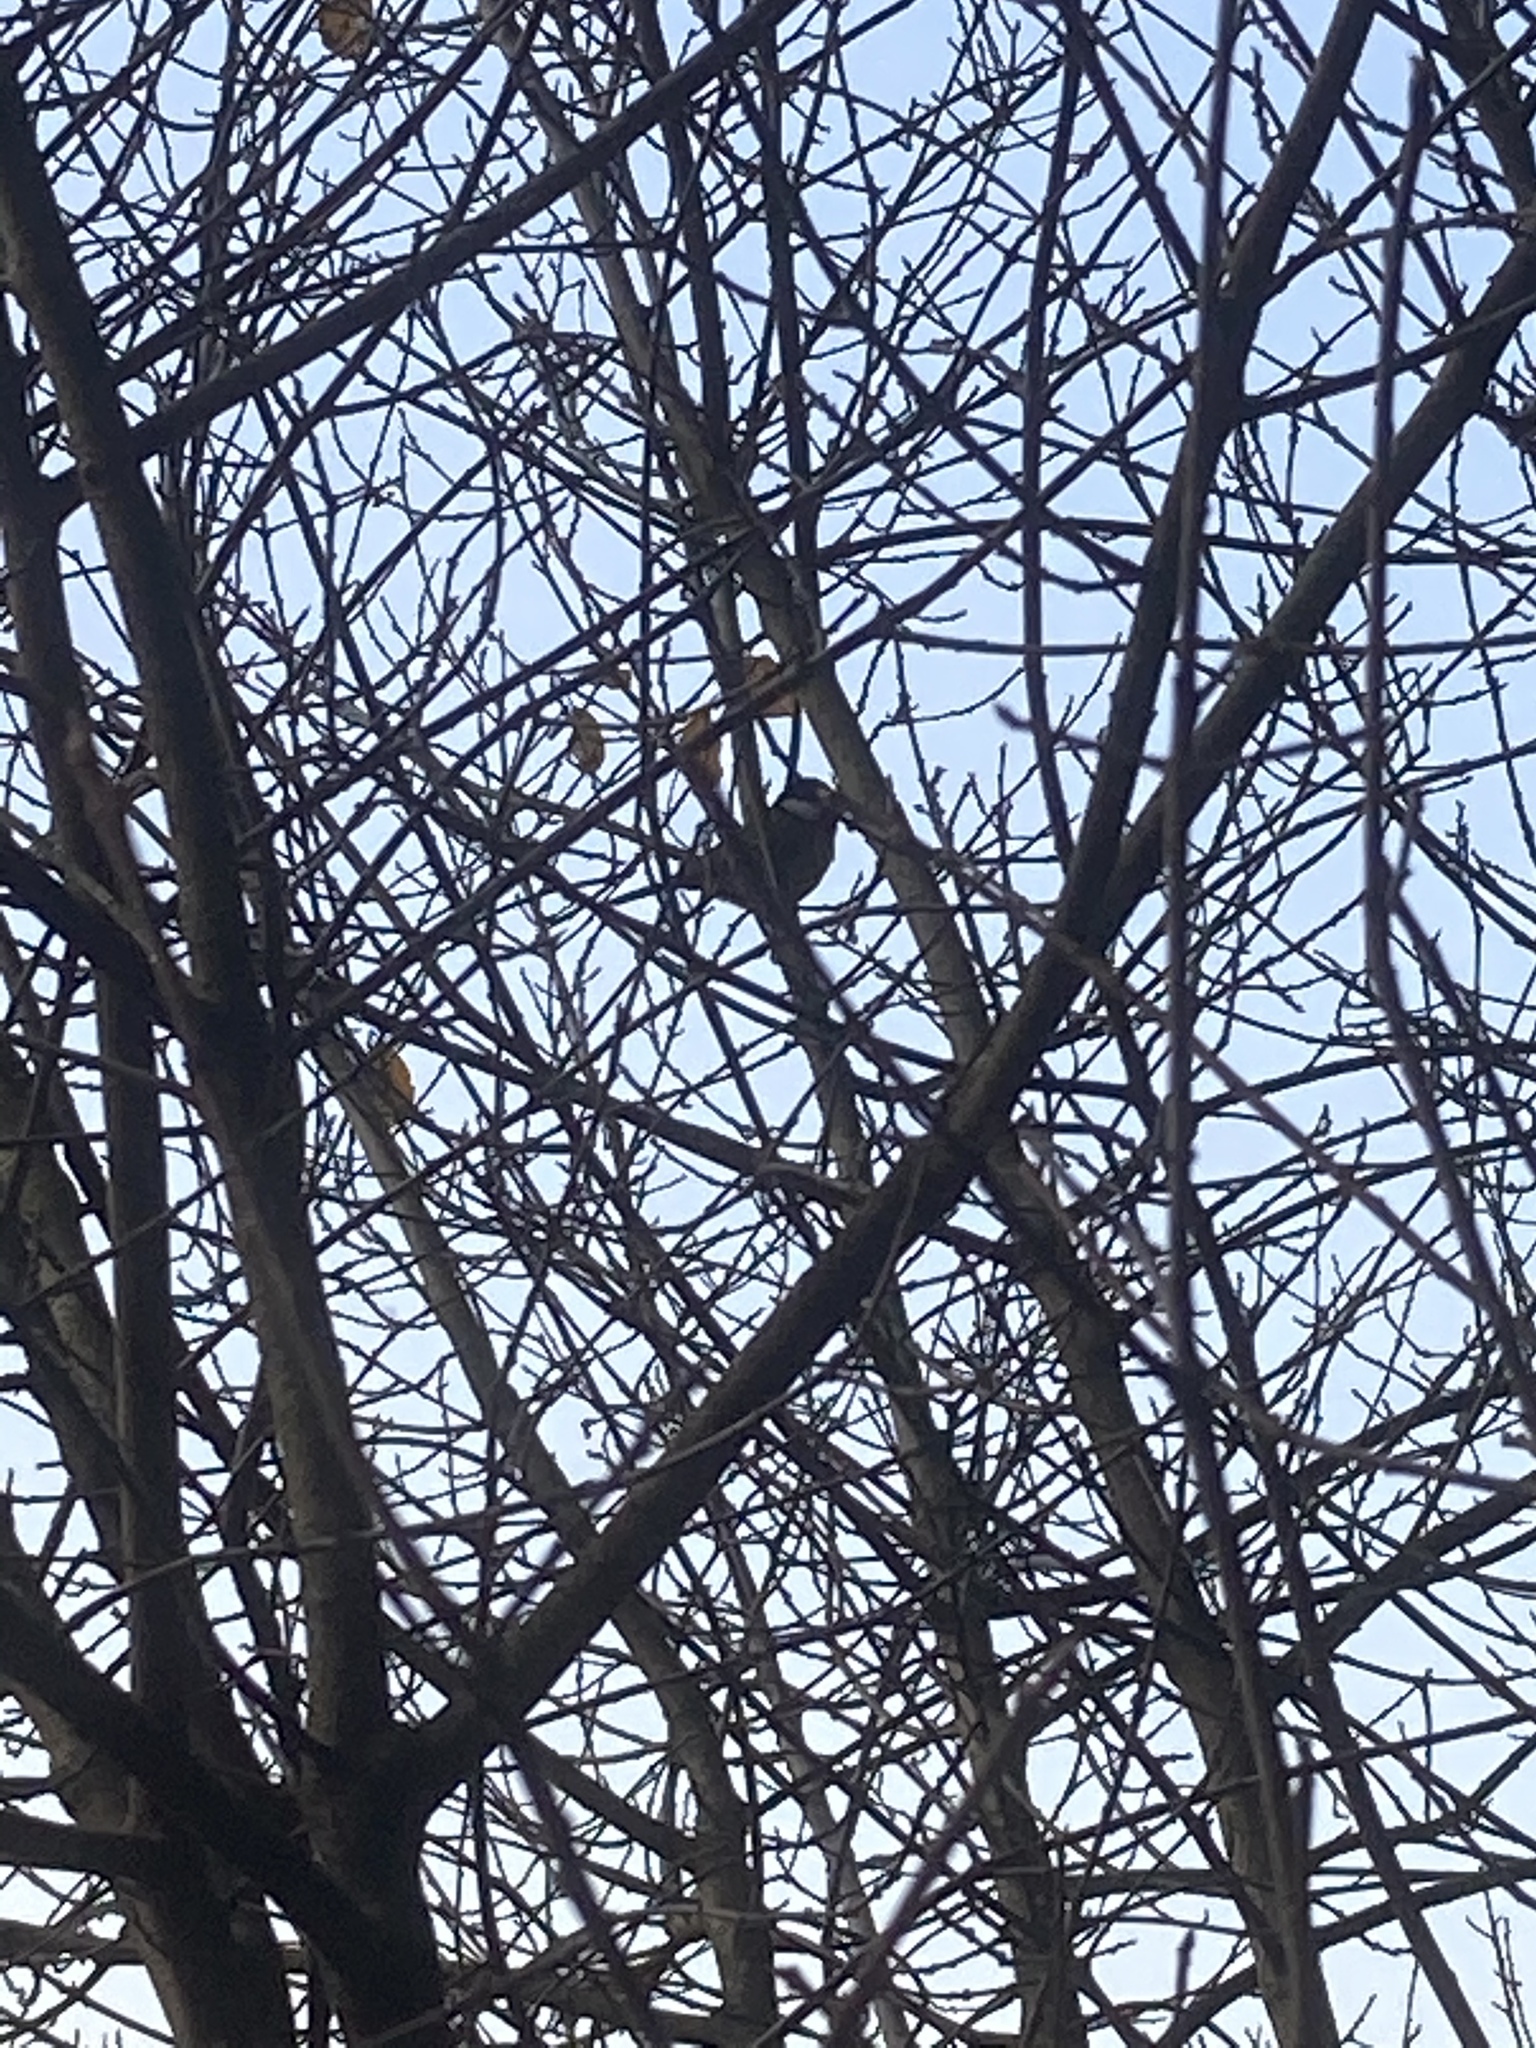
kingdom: Animalia
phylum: Chordata
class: Aves
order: Passeriformes
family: Paridae
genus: Parus
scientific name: Parus major
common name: Great tit
